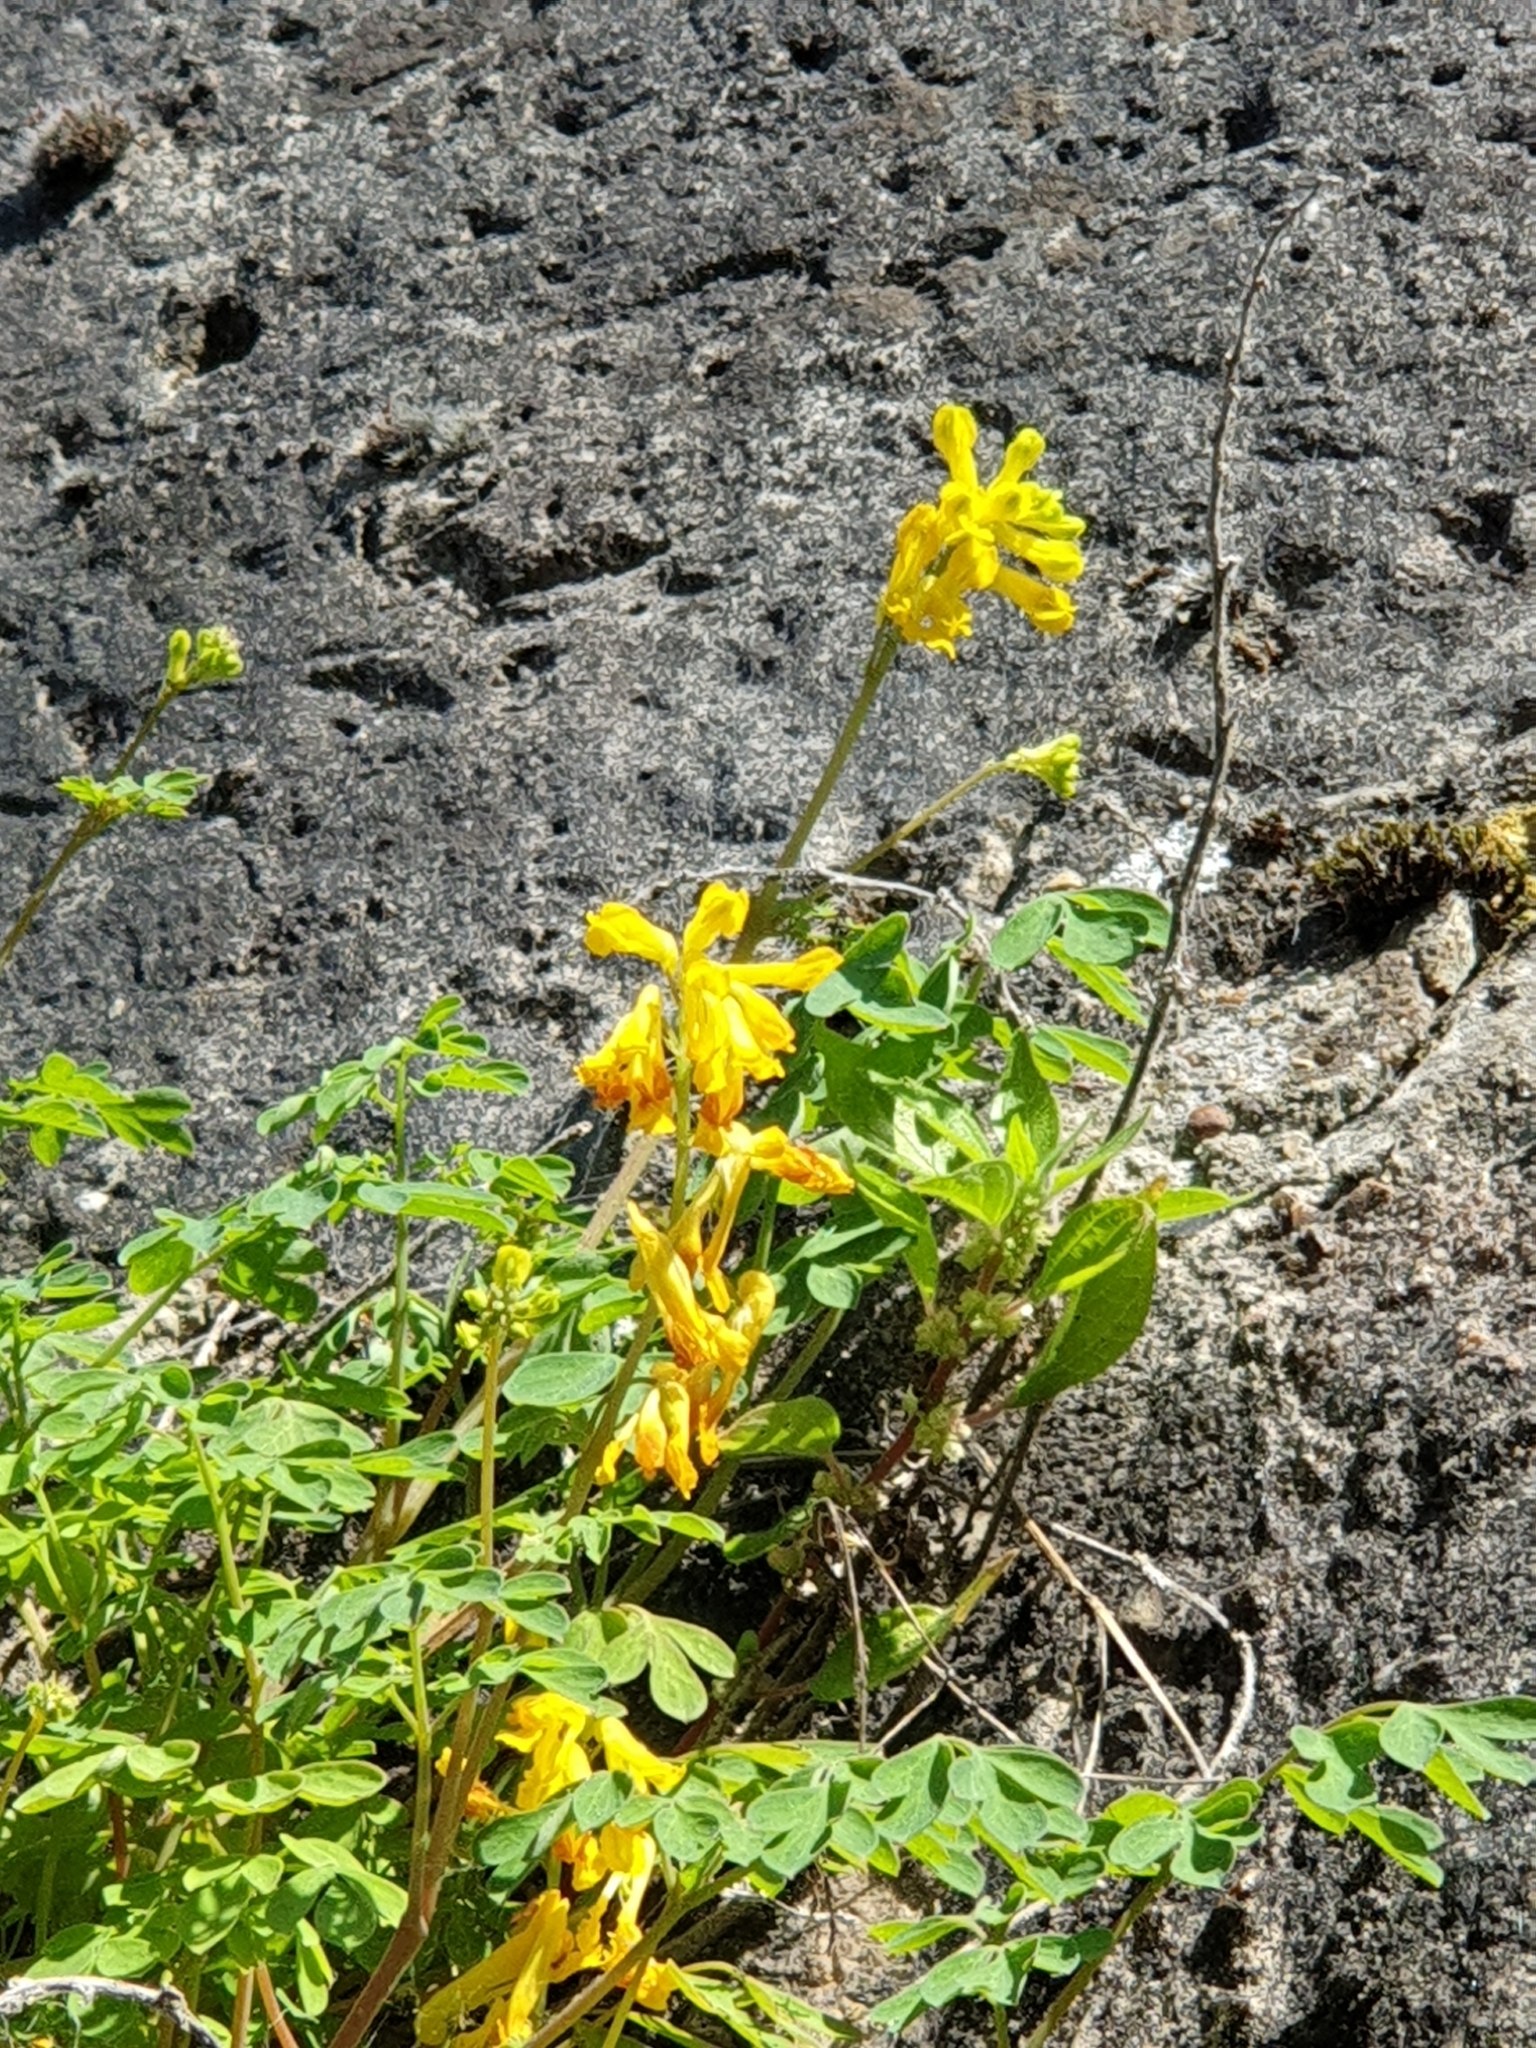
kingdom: Plantae
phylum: Tracheophyta
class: Magnoliopsida
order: Ranunculales
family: Papaveraceae
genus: Pseudofumaria
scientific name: Pseudofumaria lutea
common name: Yellow corydalis
